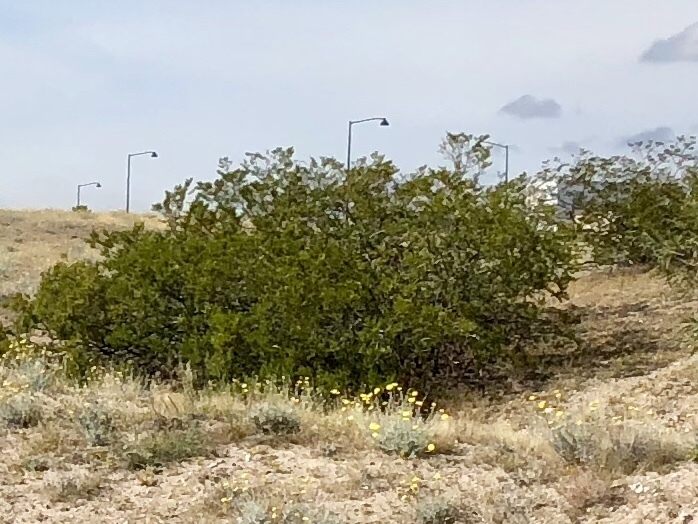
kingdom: Plantae
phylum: Tracheophyta
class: Magnoliopsida
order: Zygophyllales
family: Zygophyllaceae
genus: Larrea
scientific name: Larrea tridentata
